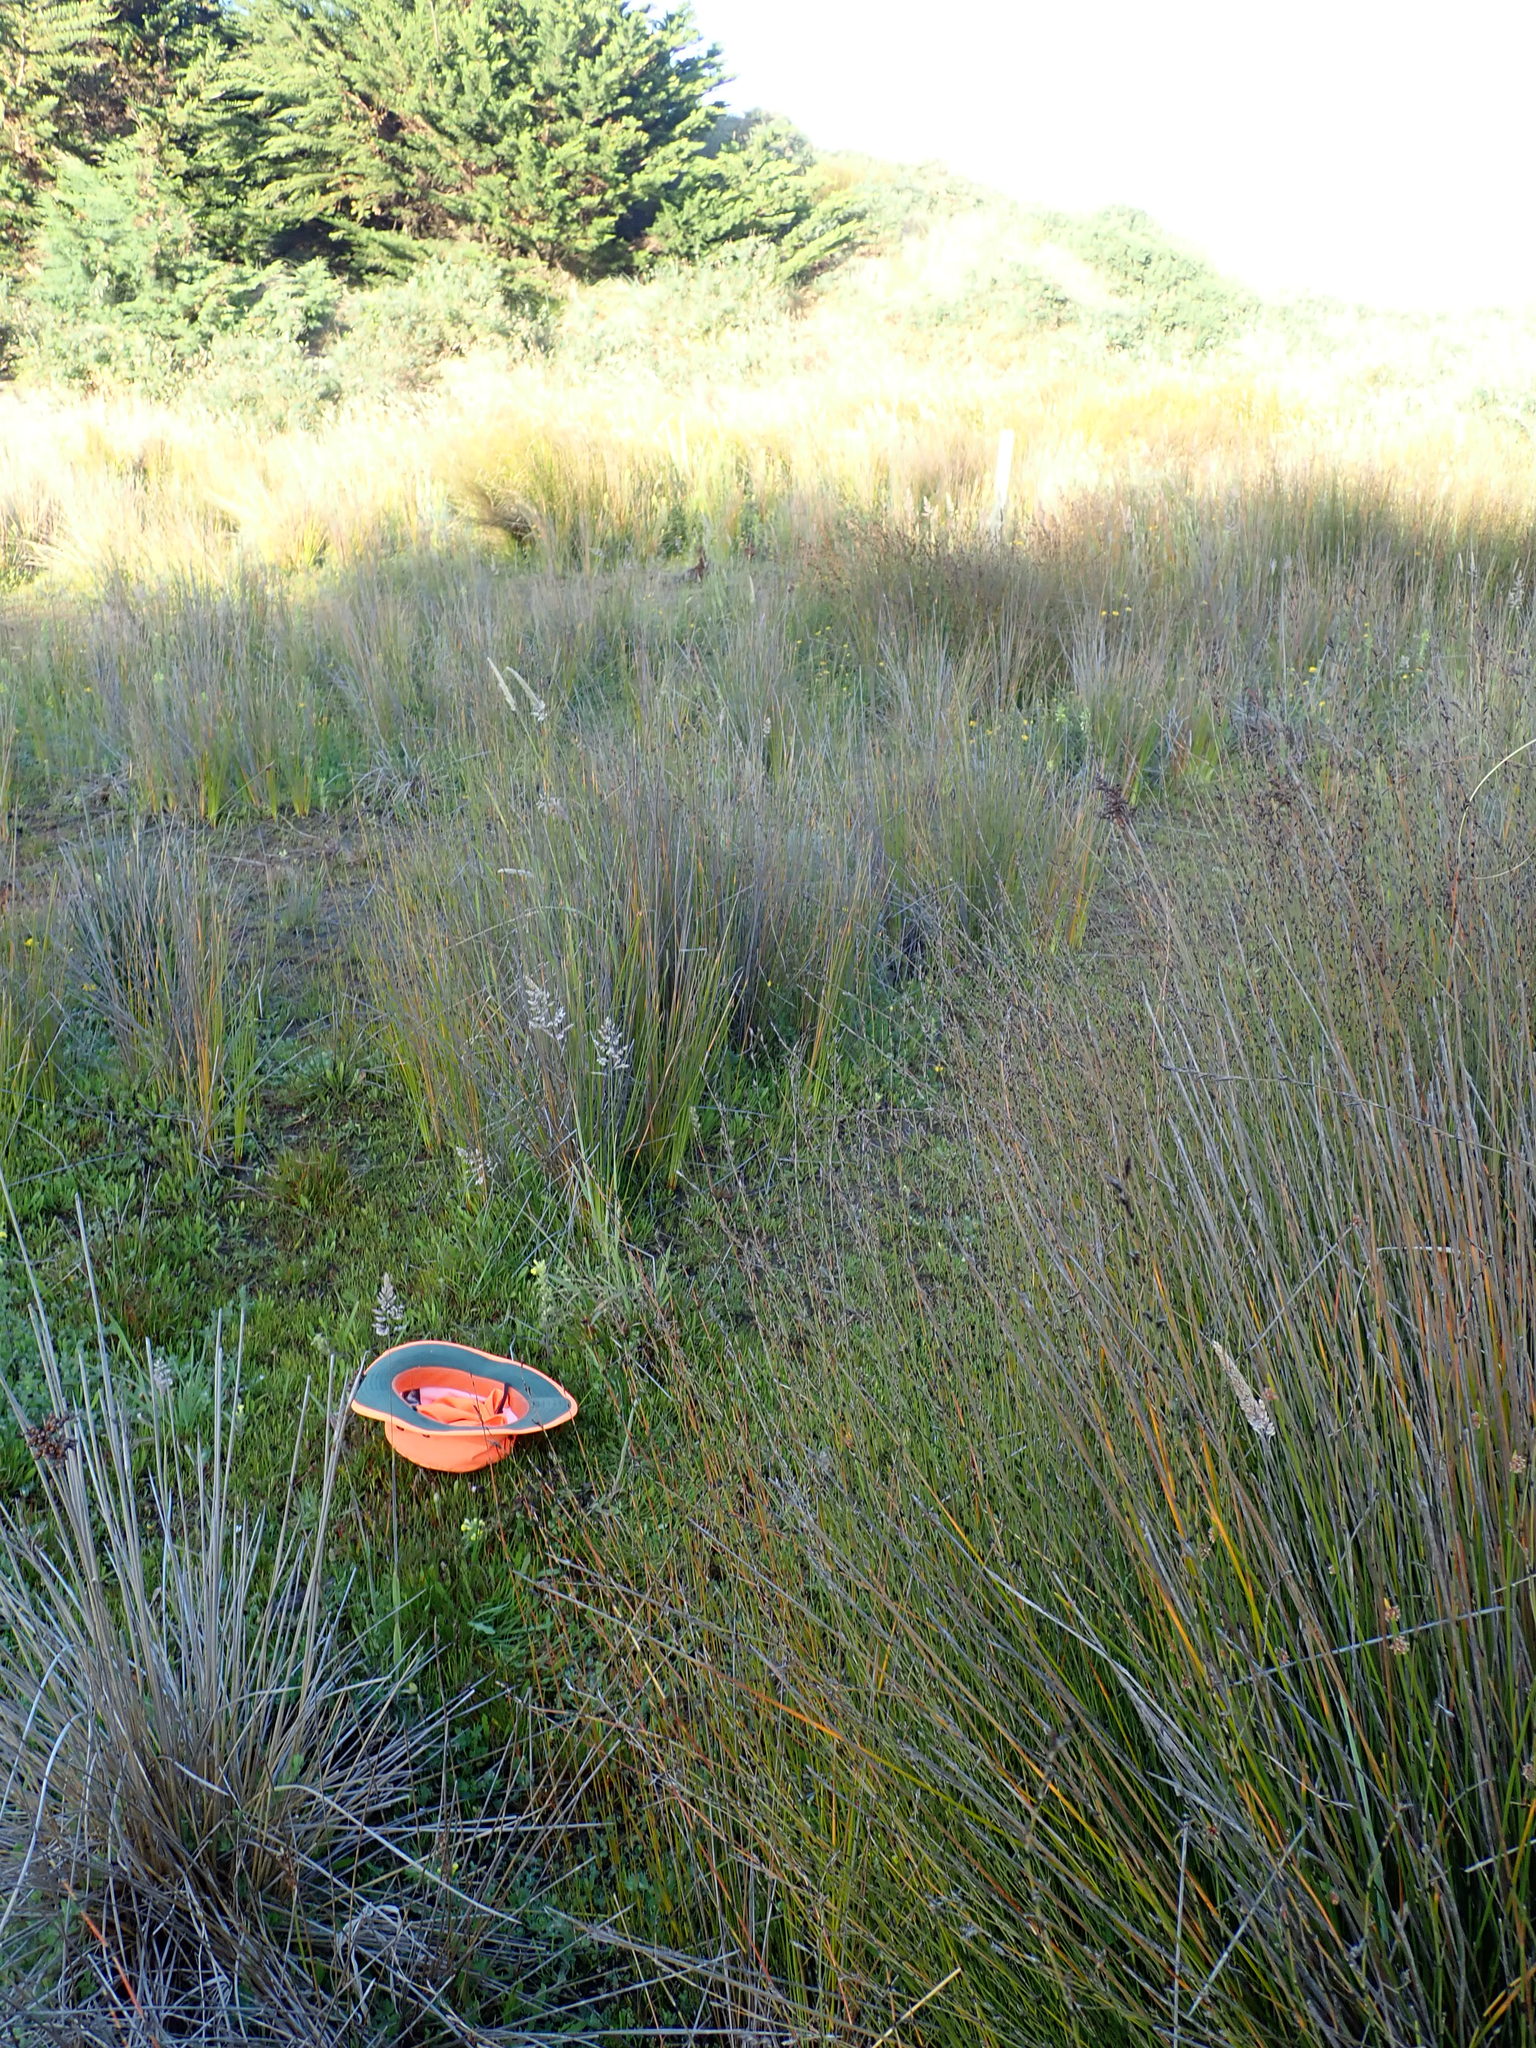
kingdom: Plantae
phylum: Tracheophyta
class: Magnoliopsida
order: Ericales
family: Primulaceae
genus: Samolus
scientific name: Samolus repens
